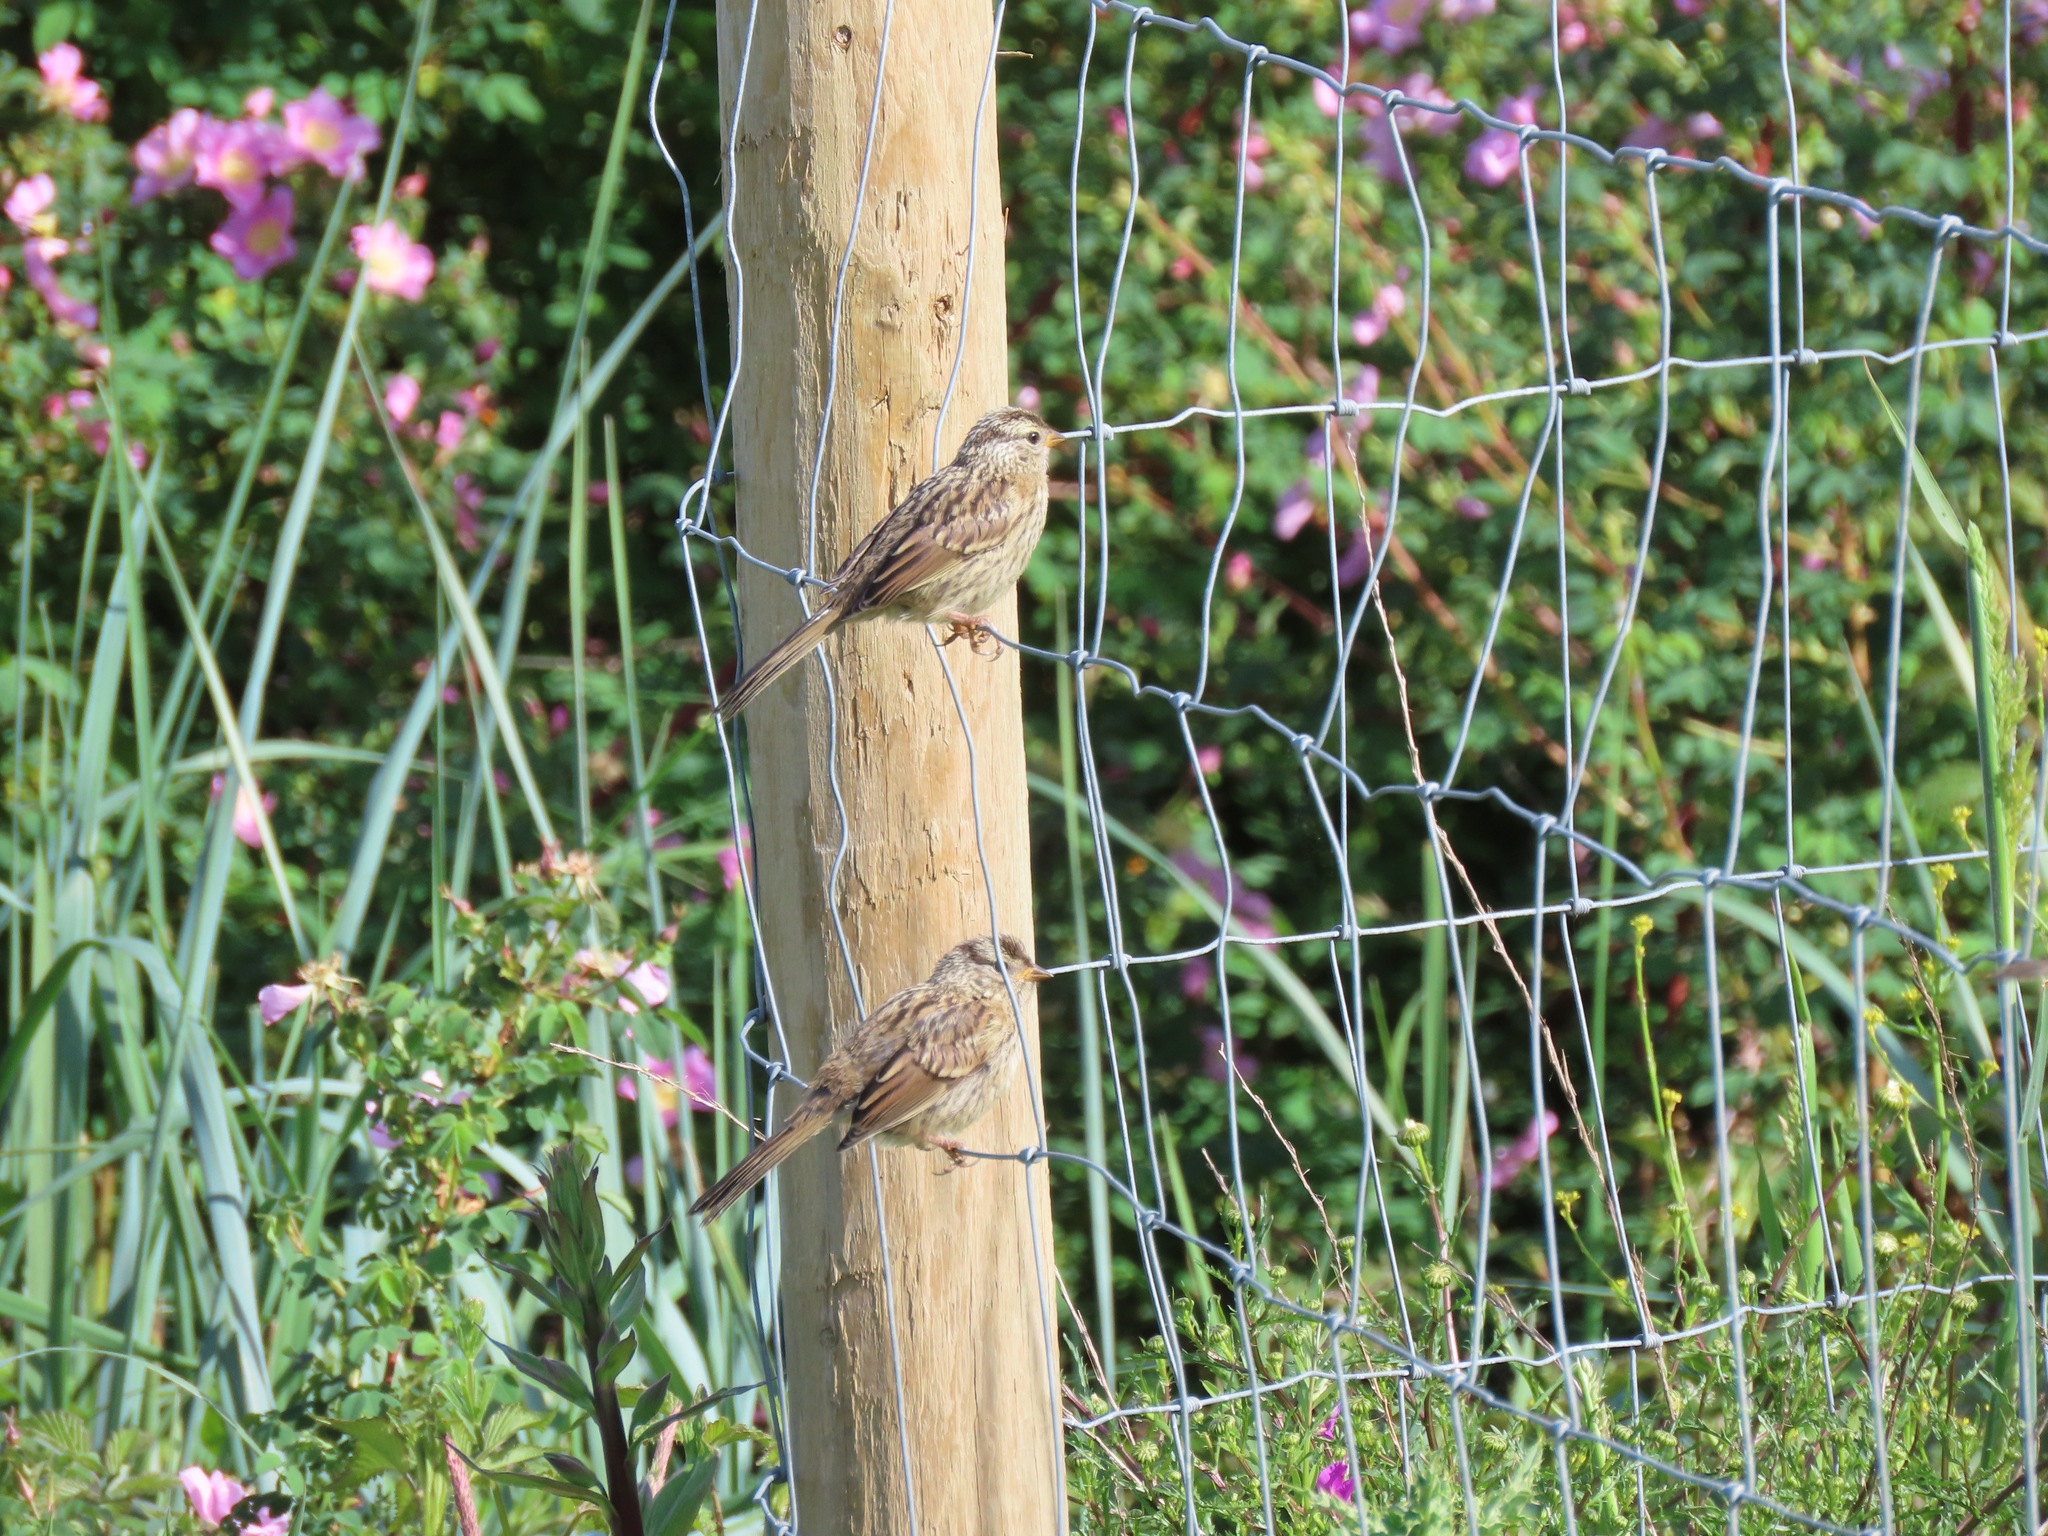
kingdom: Animalia
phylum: Chordata
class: Aves
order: Passeriformes
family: Passerellidae
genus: Zonotrichia
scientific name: Zonotrichia leucophrys
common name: White-crowned sparrow
